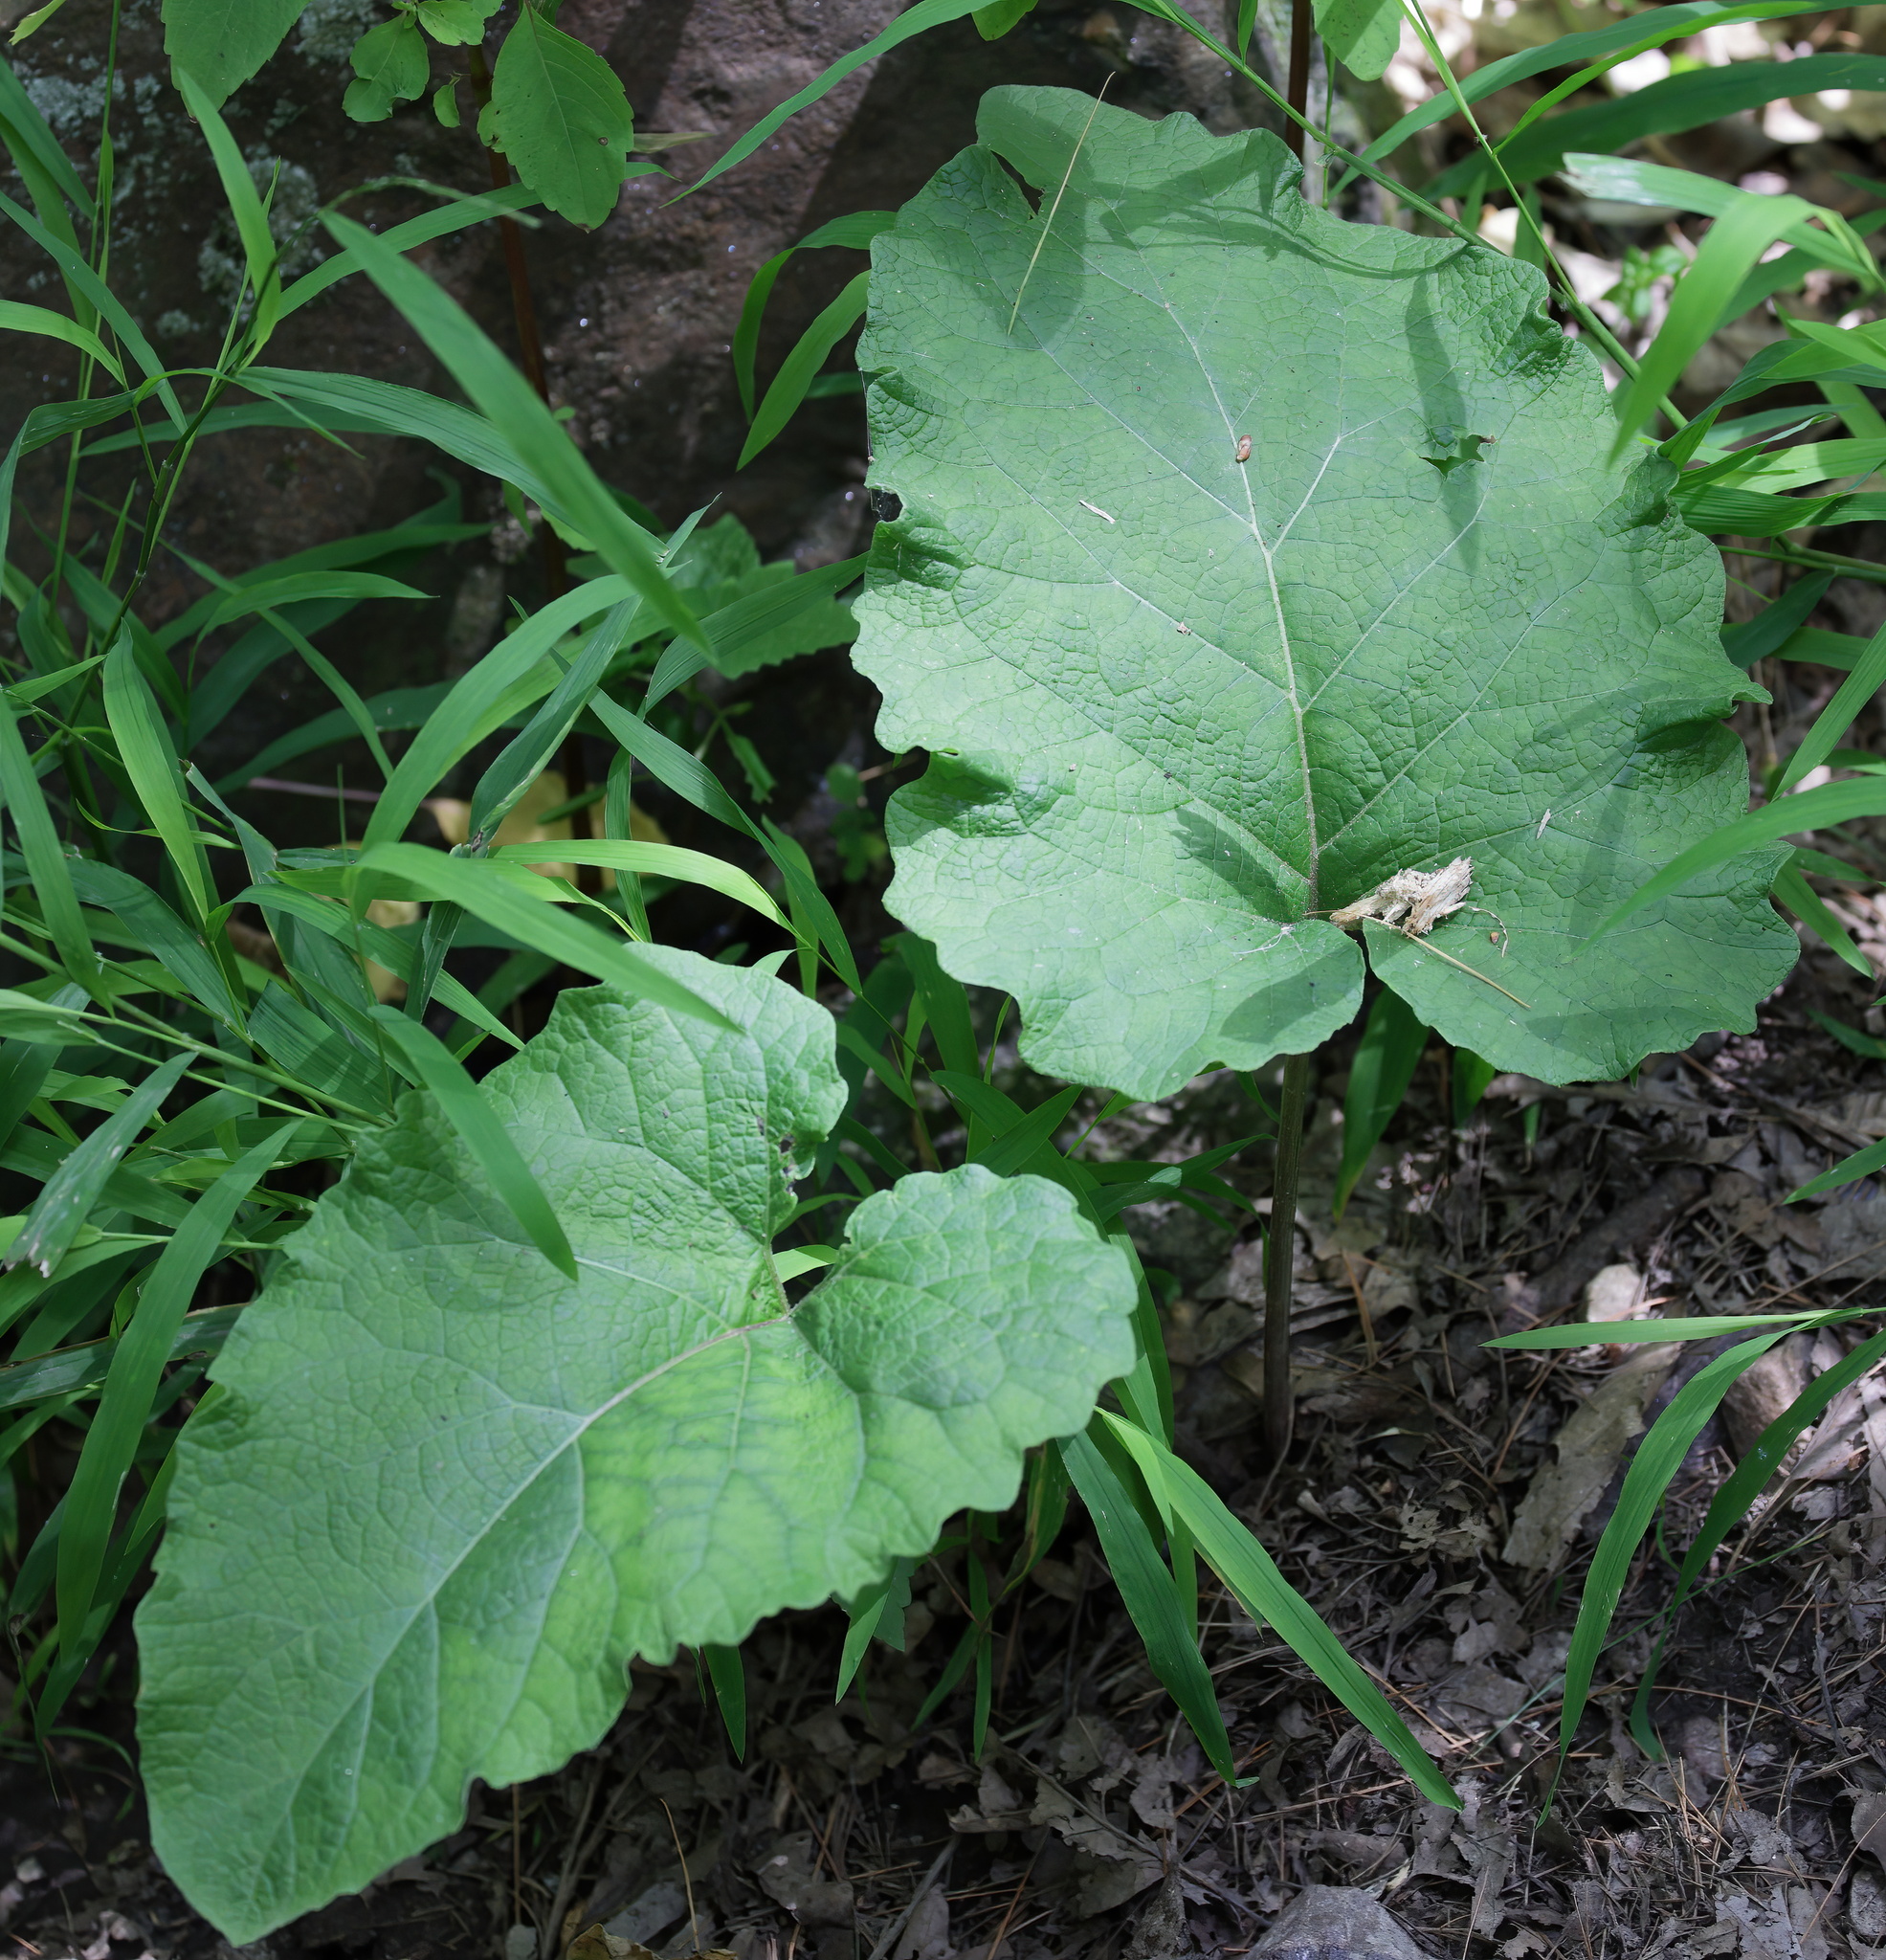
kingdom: Plantae
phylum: Tracheophyta
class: Magnoliopsida
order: Asterales
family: Asteraceae
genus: Arctium
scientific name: Arctium
